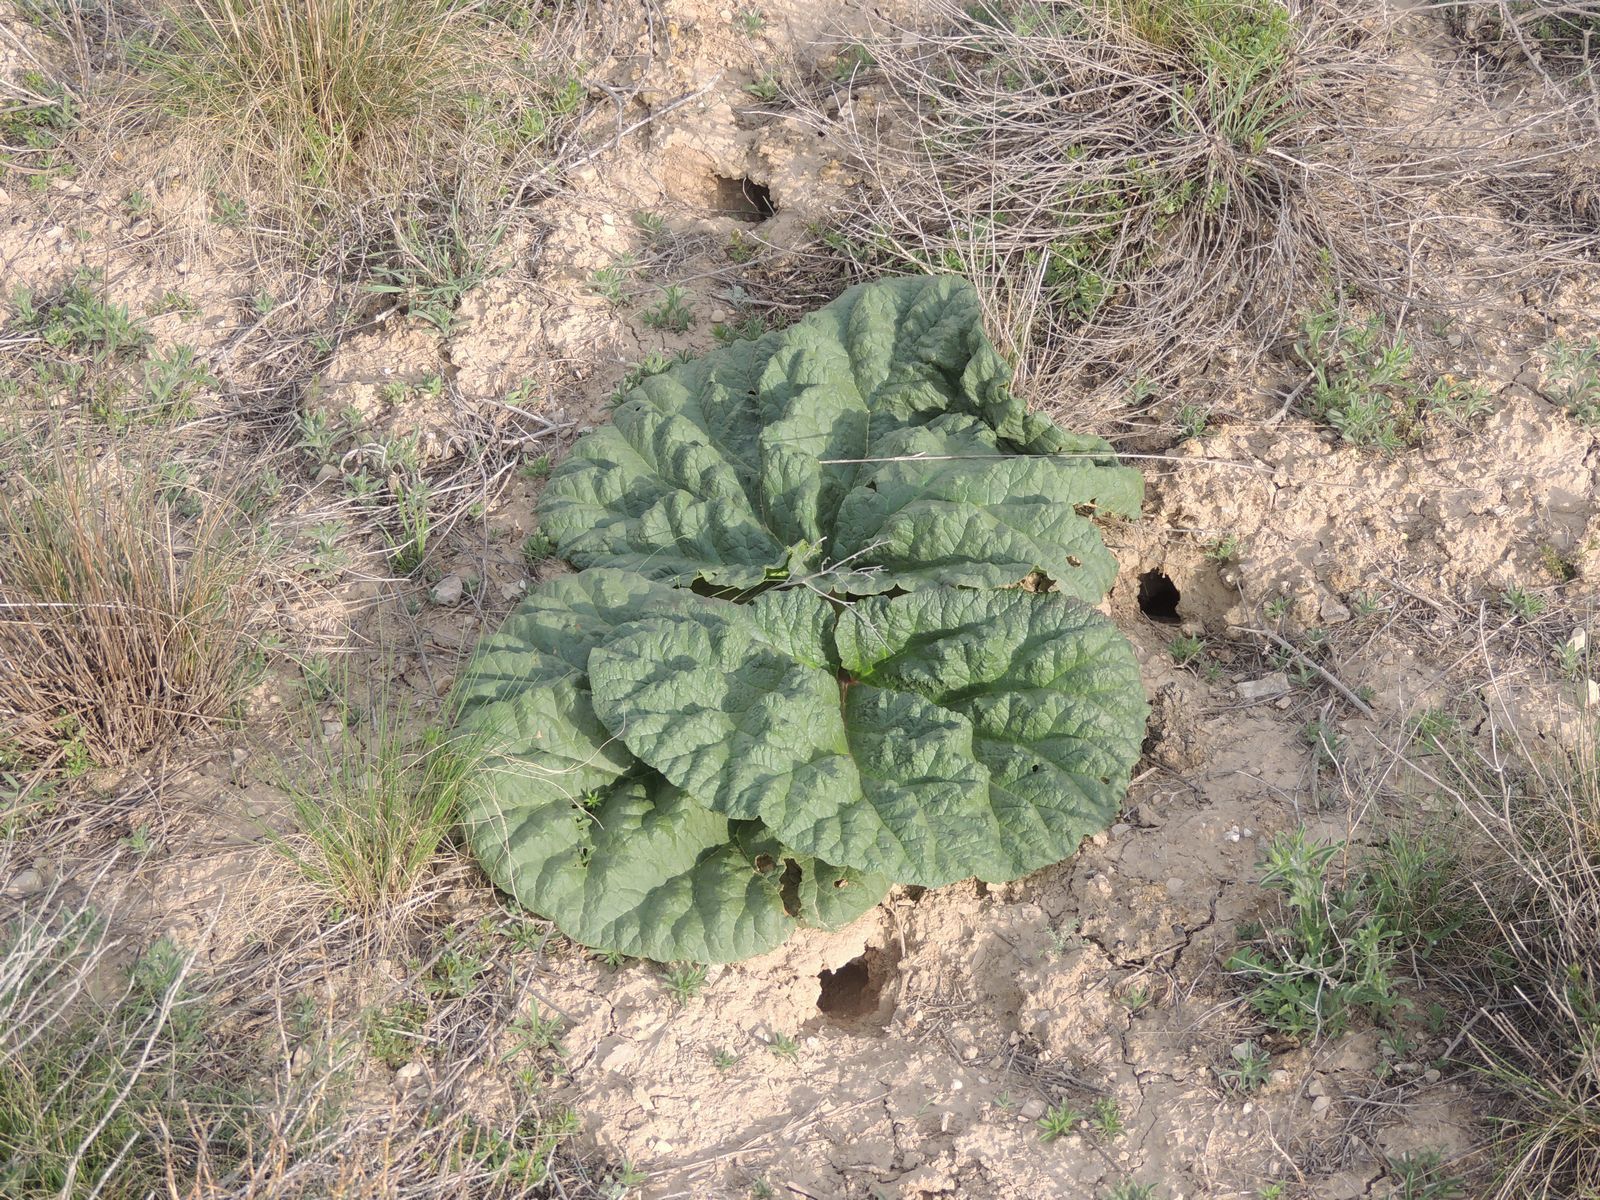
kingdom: Plantae
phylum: Tracheophyta
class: Magnoliopsida
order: Caryophyllales
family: Polygonaceae
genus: Rheum
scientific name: Rheum tataricum
